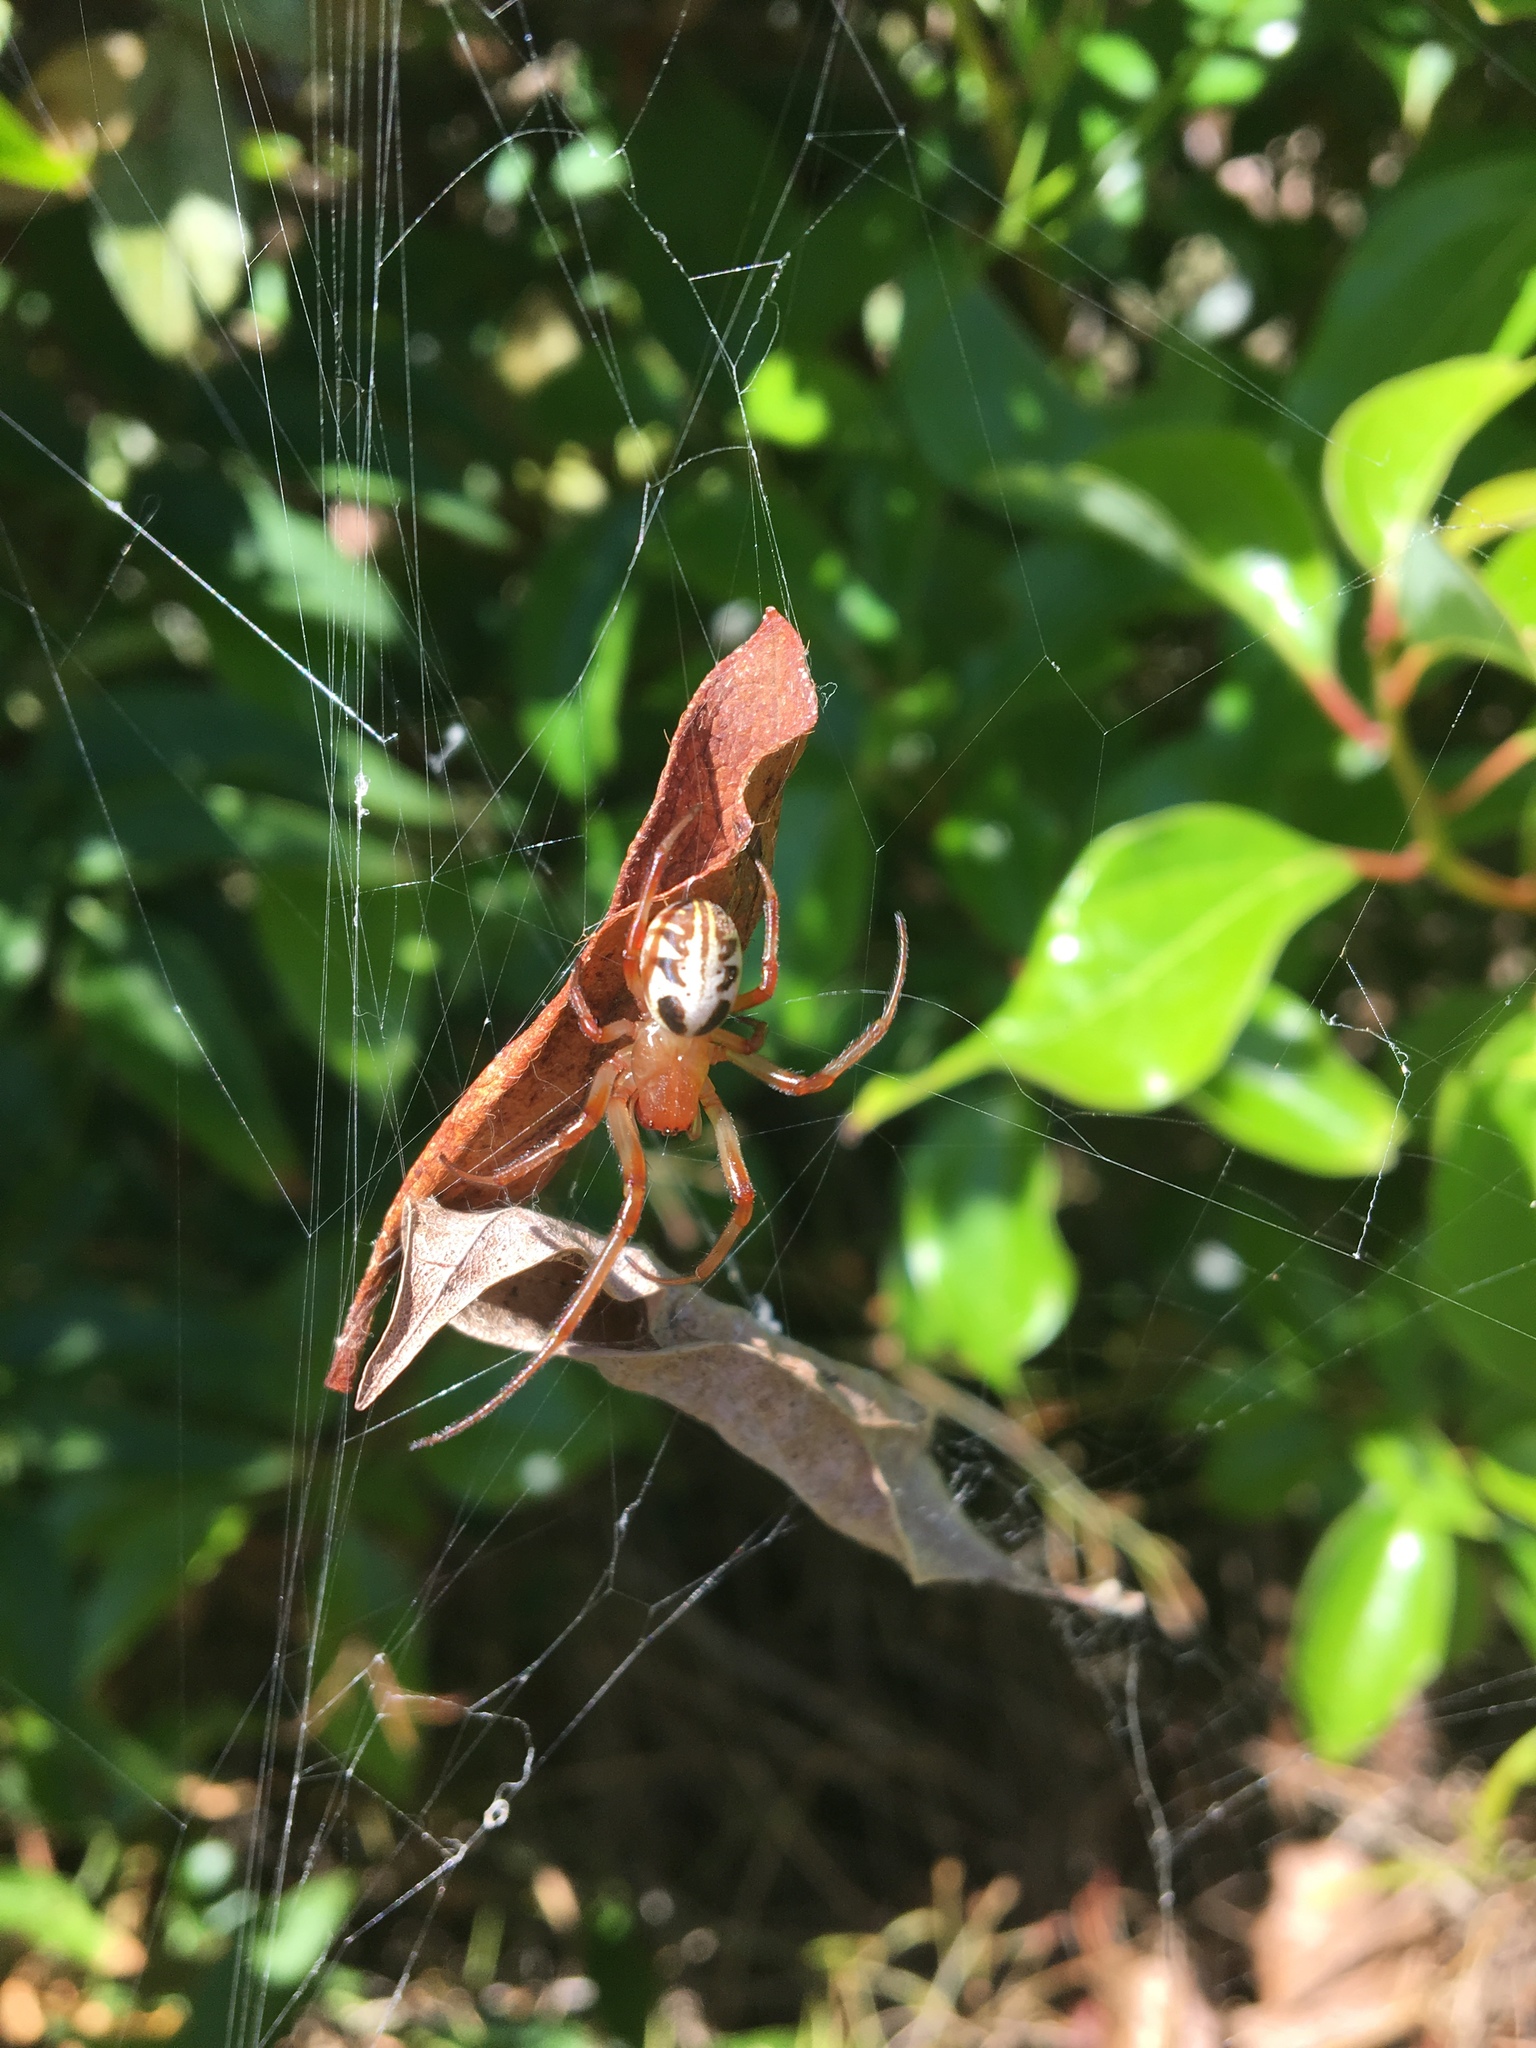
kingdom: Animalia
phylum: Arthropoda
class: Arachnida
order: Araneae
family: Araneidae
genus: Phonognatha
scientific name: Phonognatha graeffei
